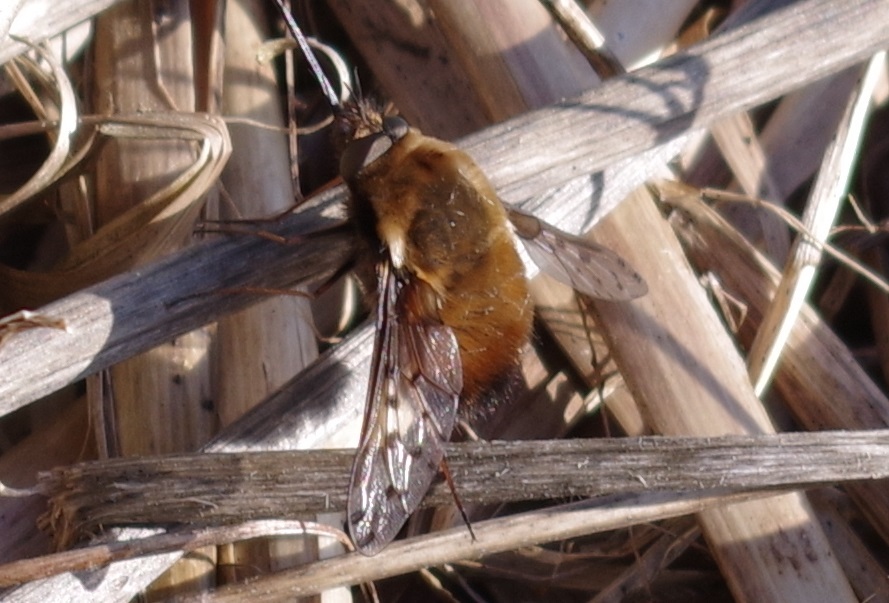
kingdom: Animalia
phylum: Arthropoda
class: Insecta
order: Diptera
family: Bombyliidae
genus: Bombylius
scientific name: Bombylius discolor
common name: Dotted bee-fly
